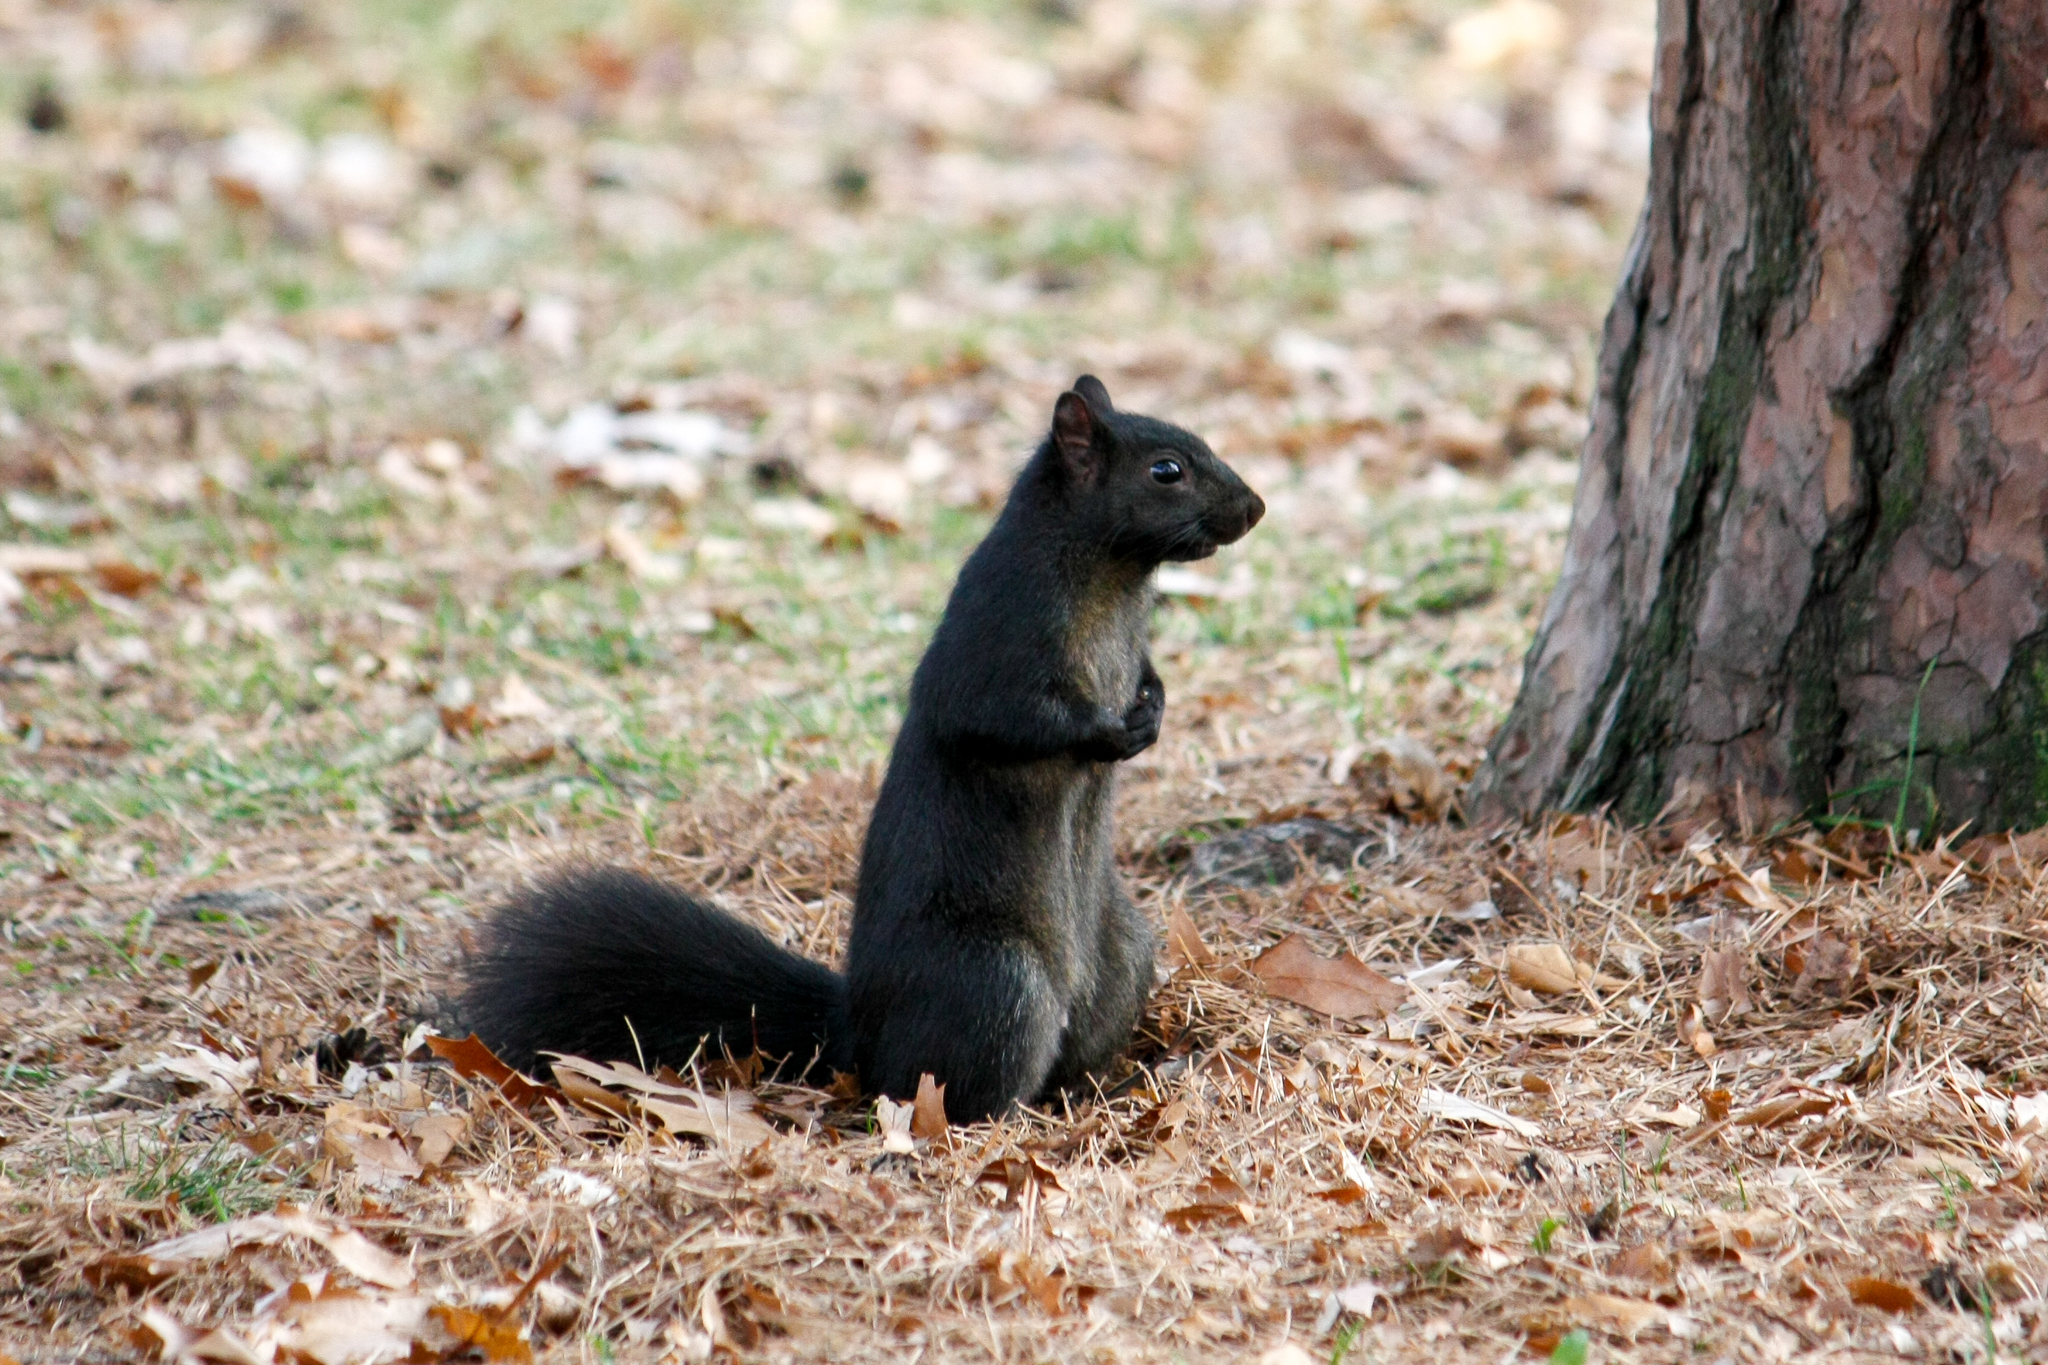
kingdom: Animalia
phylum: Chordata
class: Mammalia
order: Rodentia
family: Sciuridae
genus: Sciurus
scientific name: Sciurus carolinensis
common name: Eastern gray squirrel
